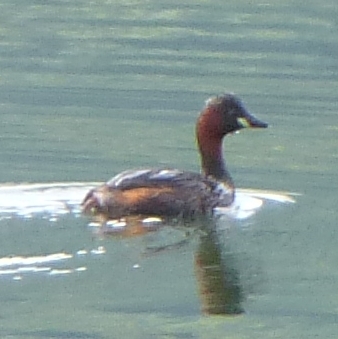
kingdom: Animalia
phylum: Chordata
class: Aves
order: Podicipediformes
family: Podicipedidae
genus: Tachybaptus
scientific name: Tachybaptus ruficollis
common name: Little grebe
